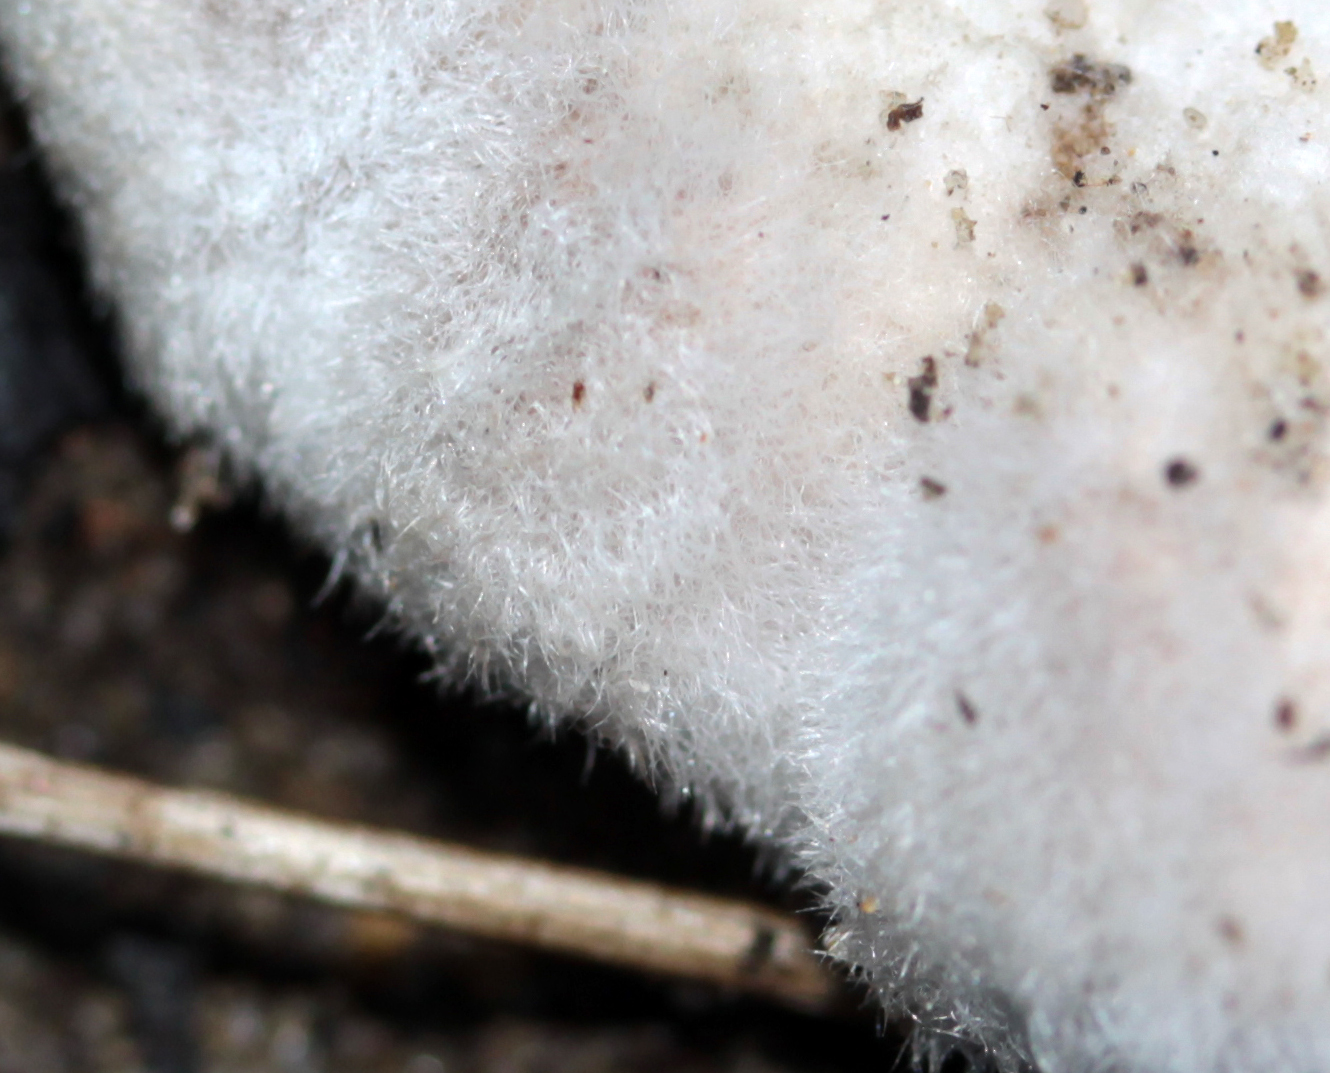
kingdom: Fungi
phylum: Basidiomycota
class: Agaricomycetes
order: Agaricales
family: Schizophyllaceae
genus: Schizophyllum
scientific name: Schizophyllum commune
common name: Common porecrust
